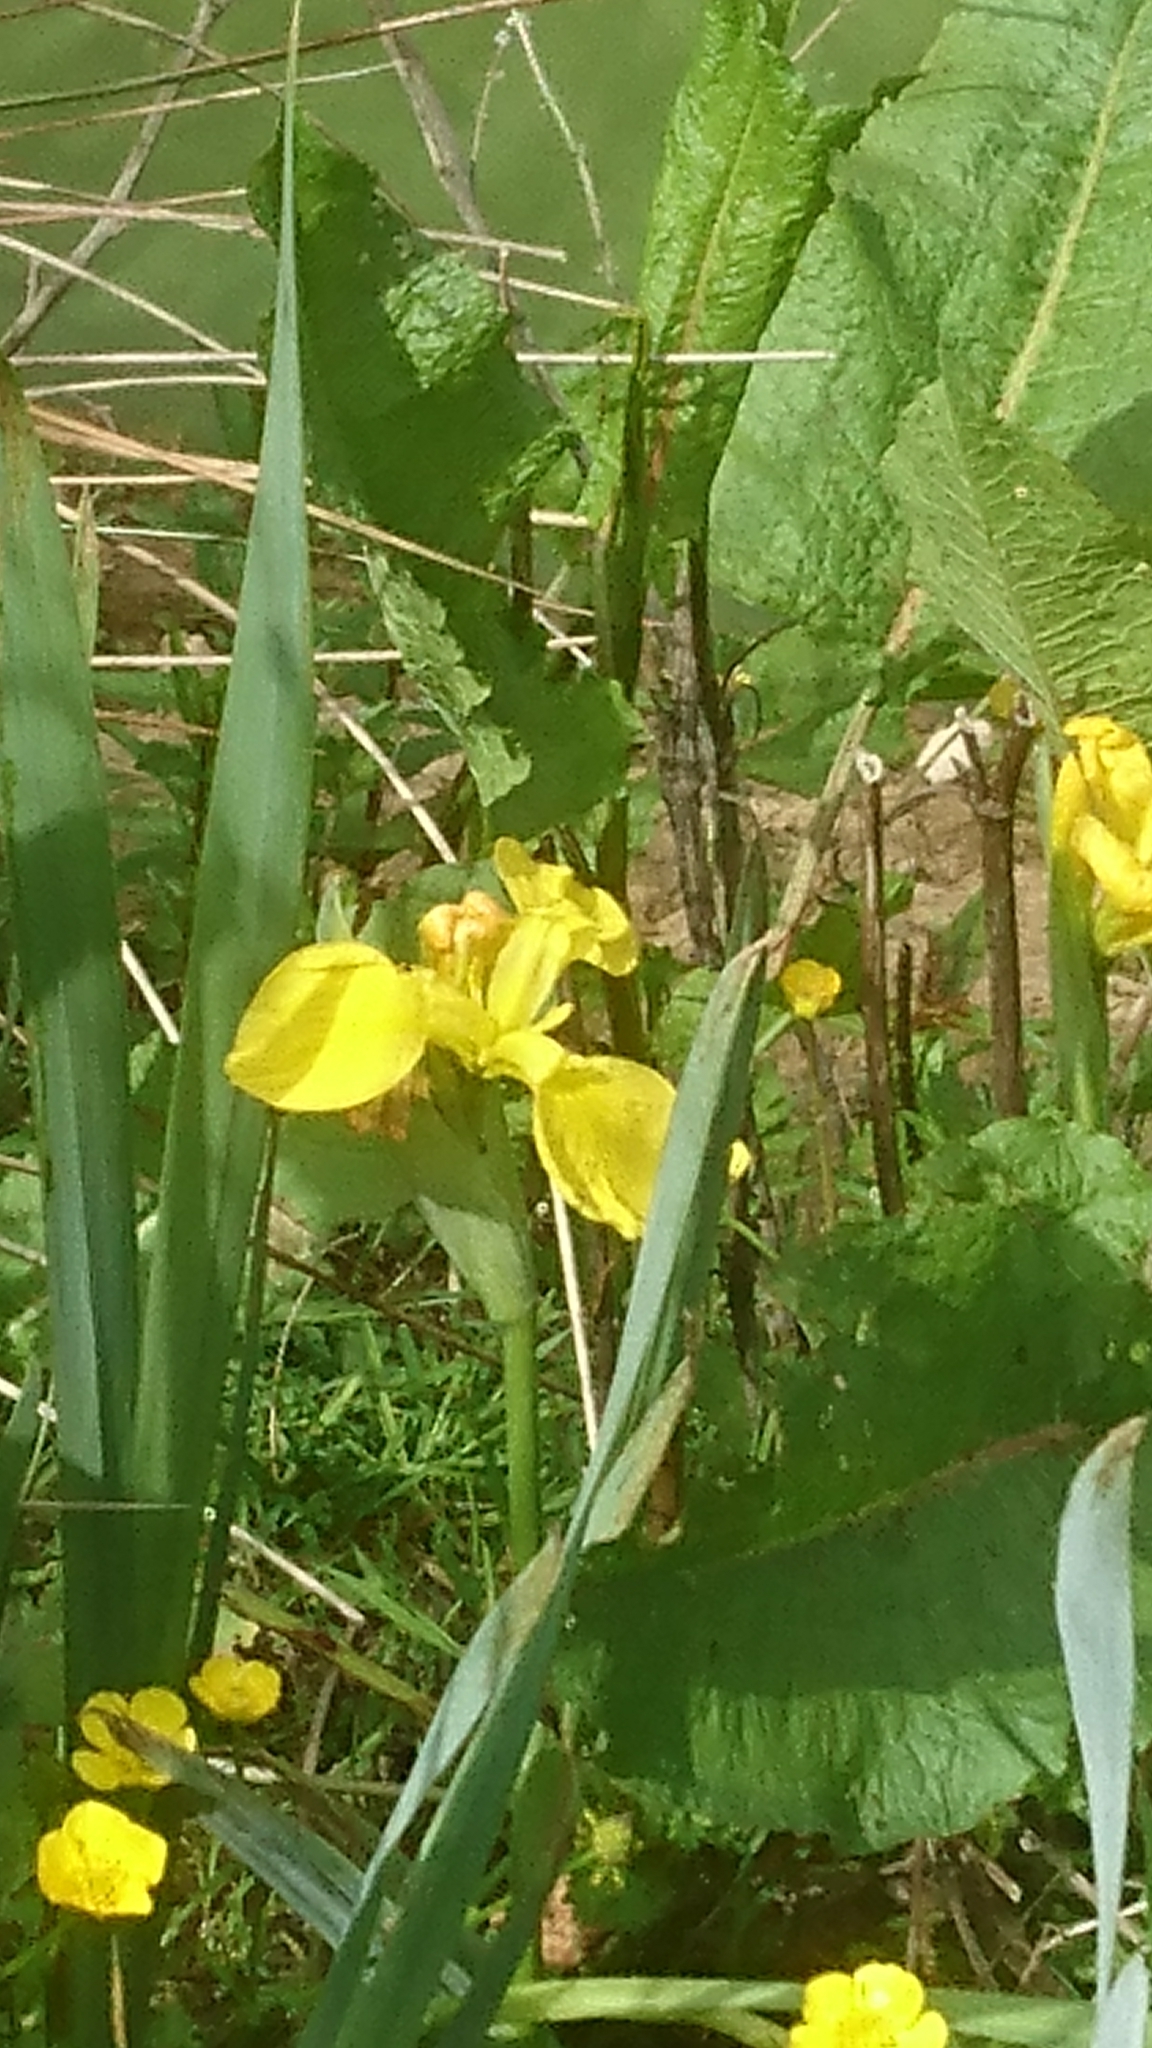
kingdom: Plantae
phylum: Tracheophyta
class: Liliopsida
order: Asparagales
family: Iridaceae
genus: Iris
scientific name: Iris pseudacorus
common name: Yellow flag
